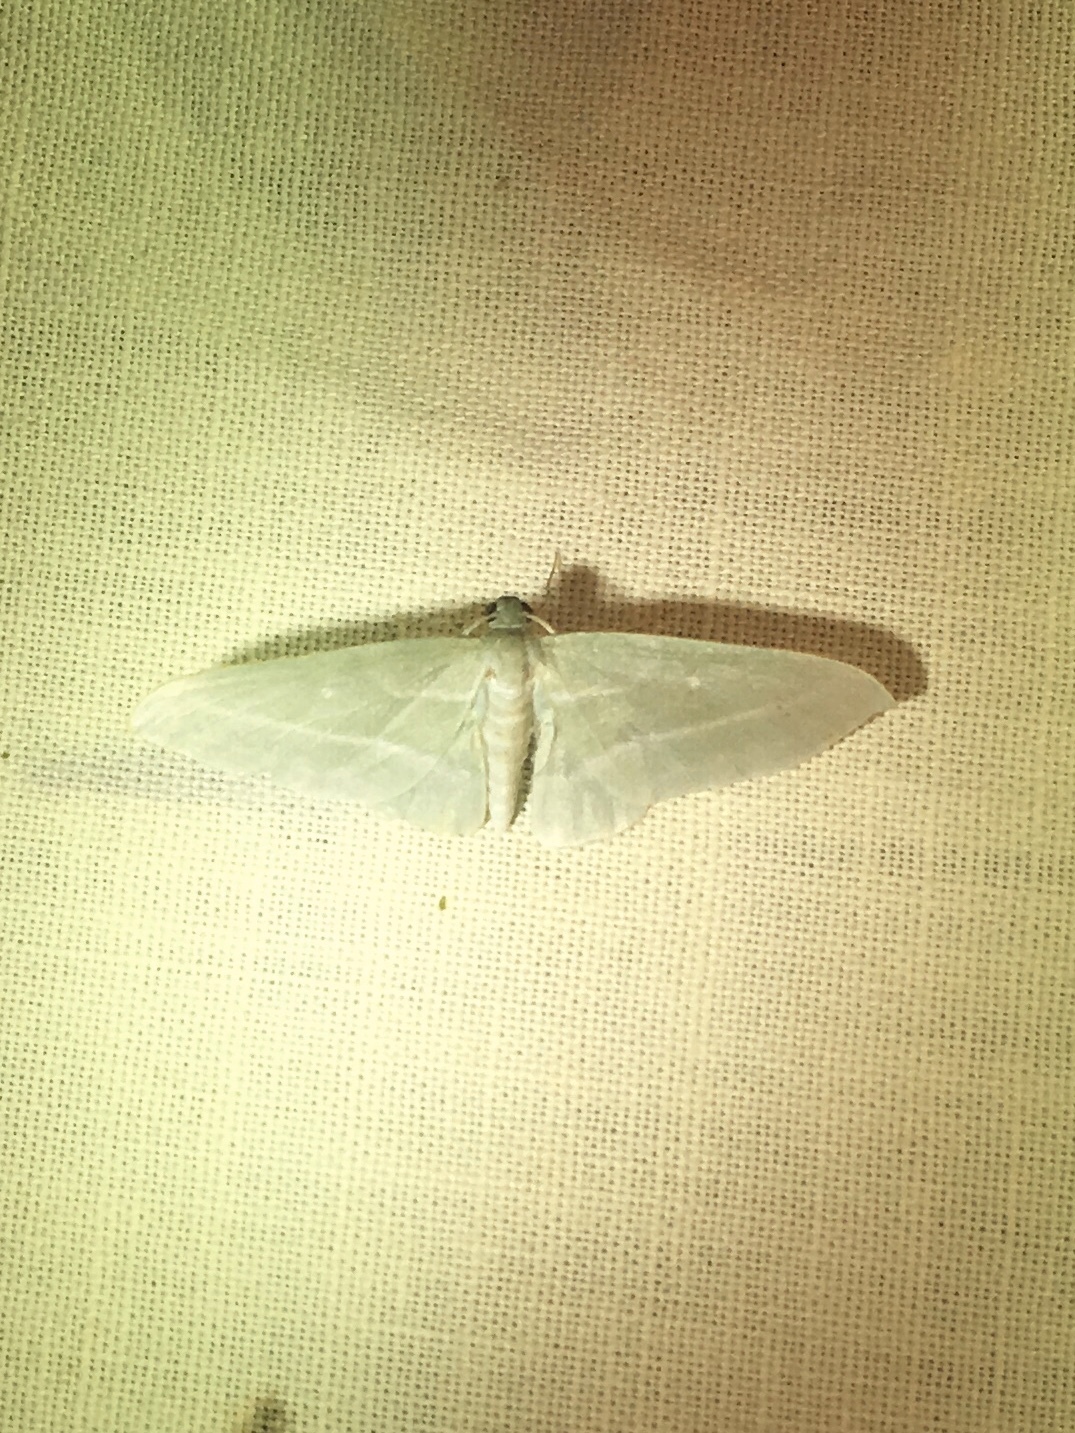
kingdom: Animalia
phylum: Arthropoda
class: Insecta
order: Lepidoptera
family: Geometridae
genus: Dyspteris
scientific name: Dyspteris abortivaria
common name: Bad-wing
